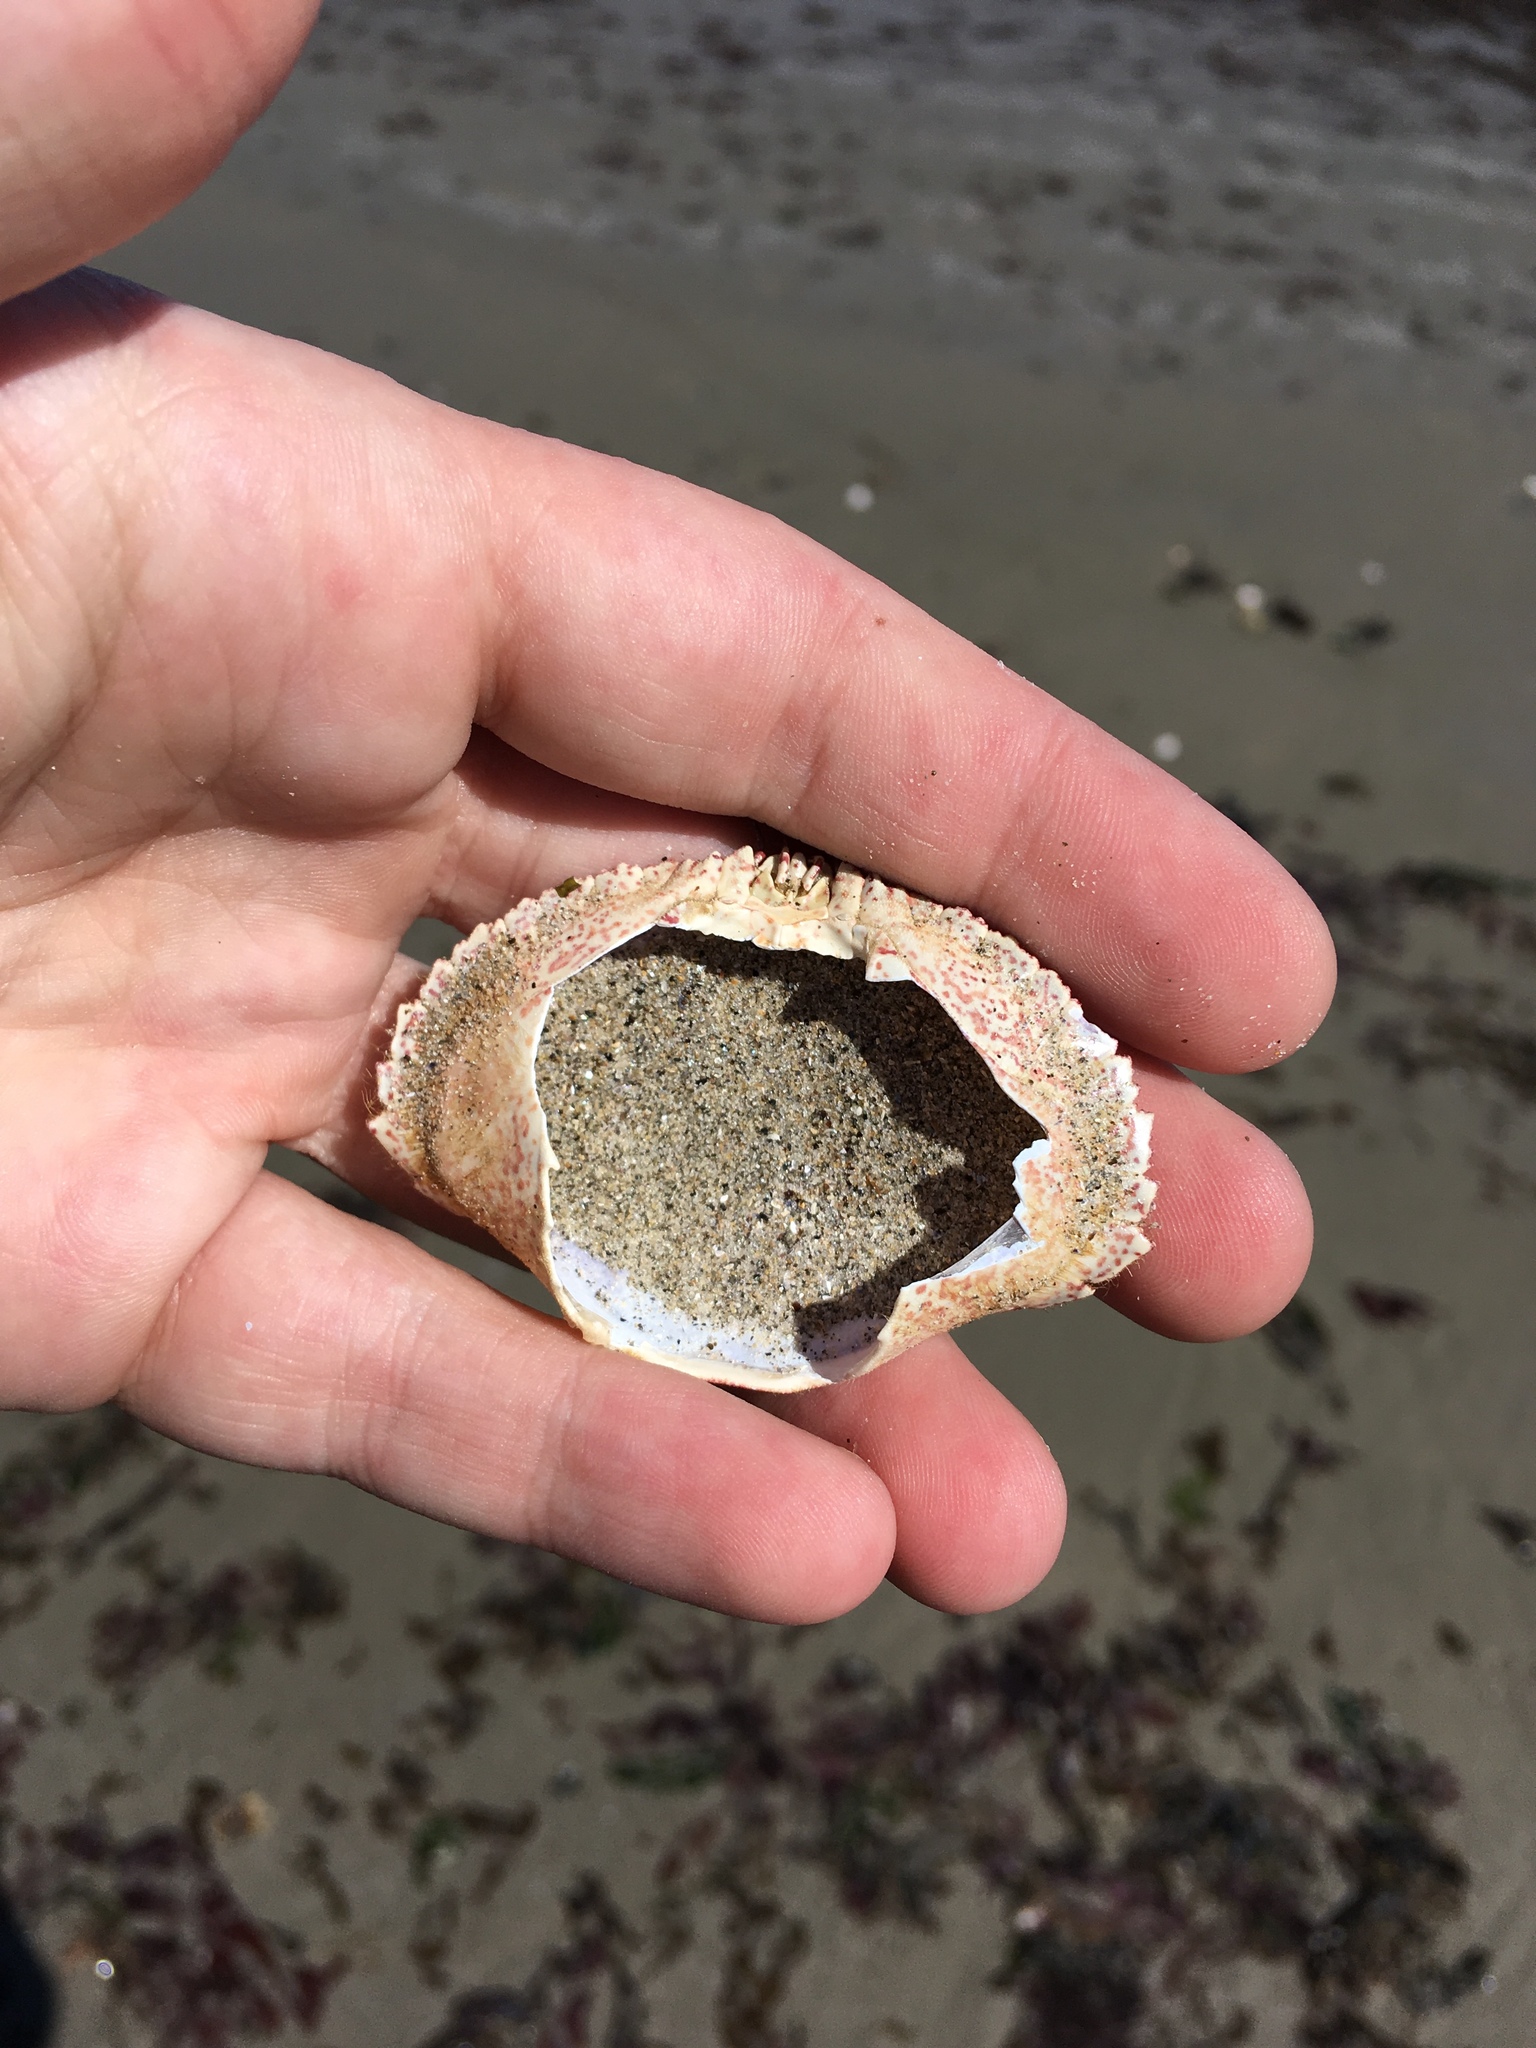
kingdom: Animalia
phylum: Arthropoda
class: Malacostraca
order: Decapoda
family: Cancridae
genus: Cancer
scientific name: Cancer borealis
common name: Jonah crab
